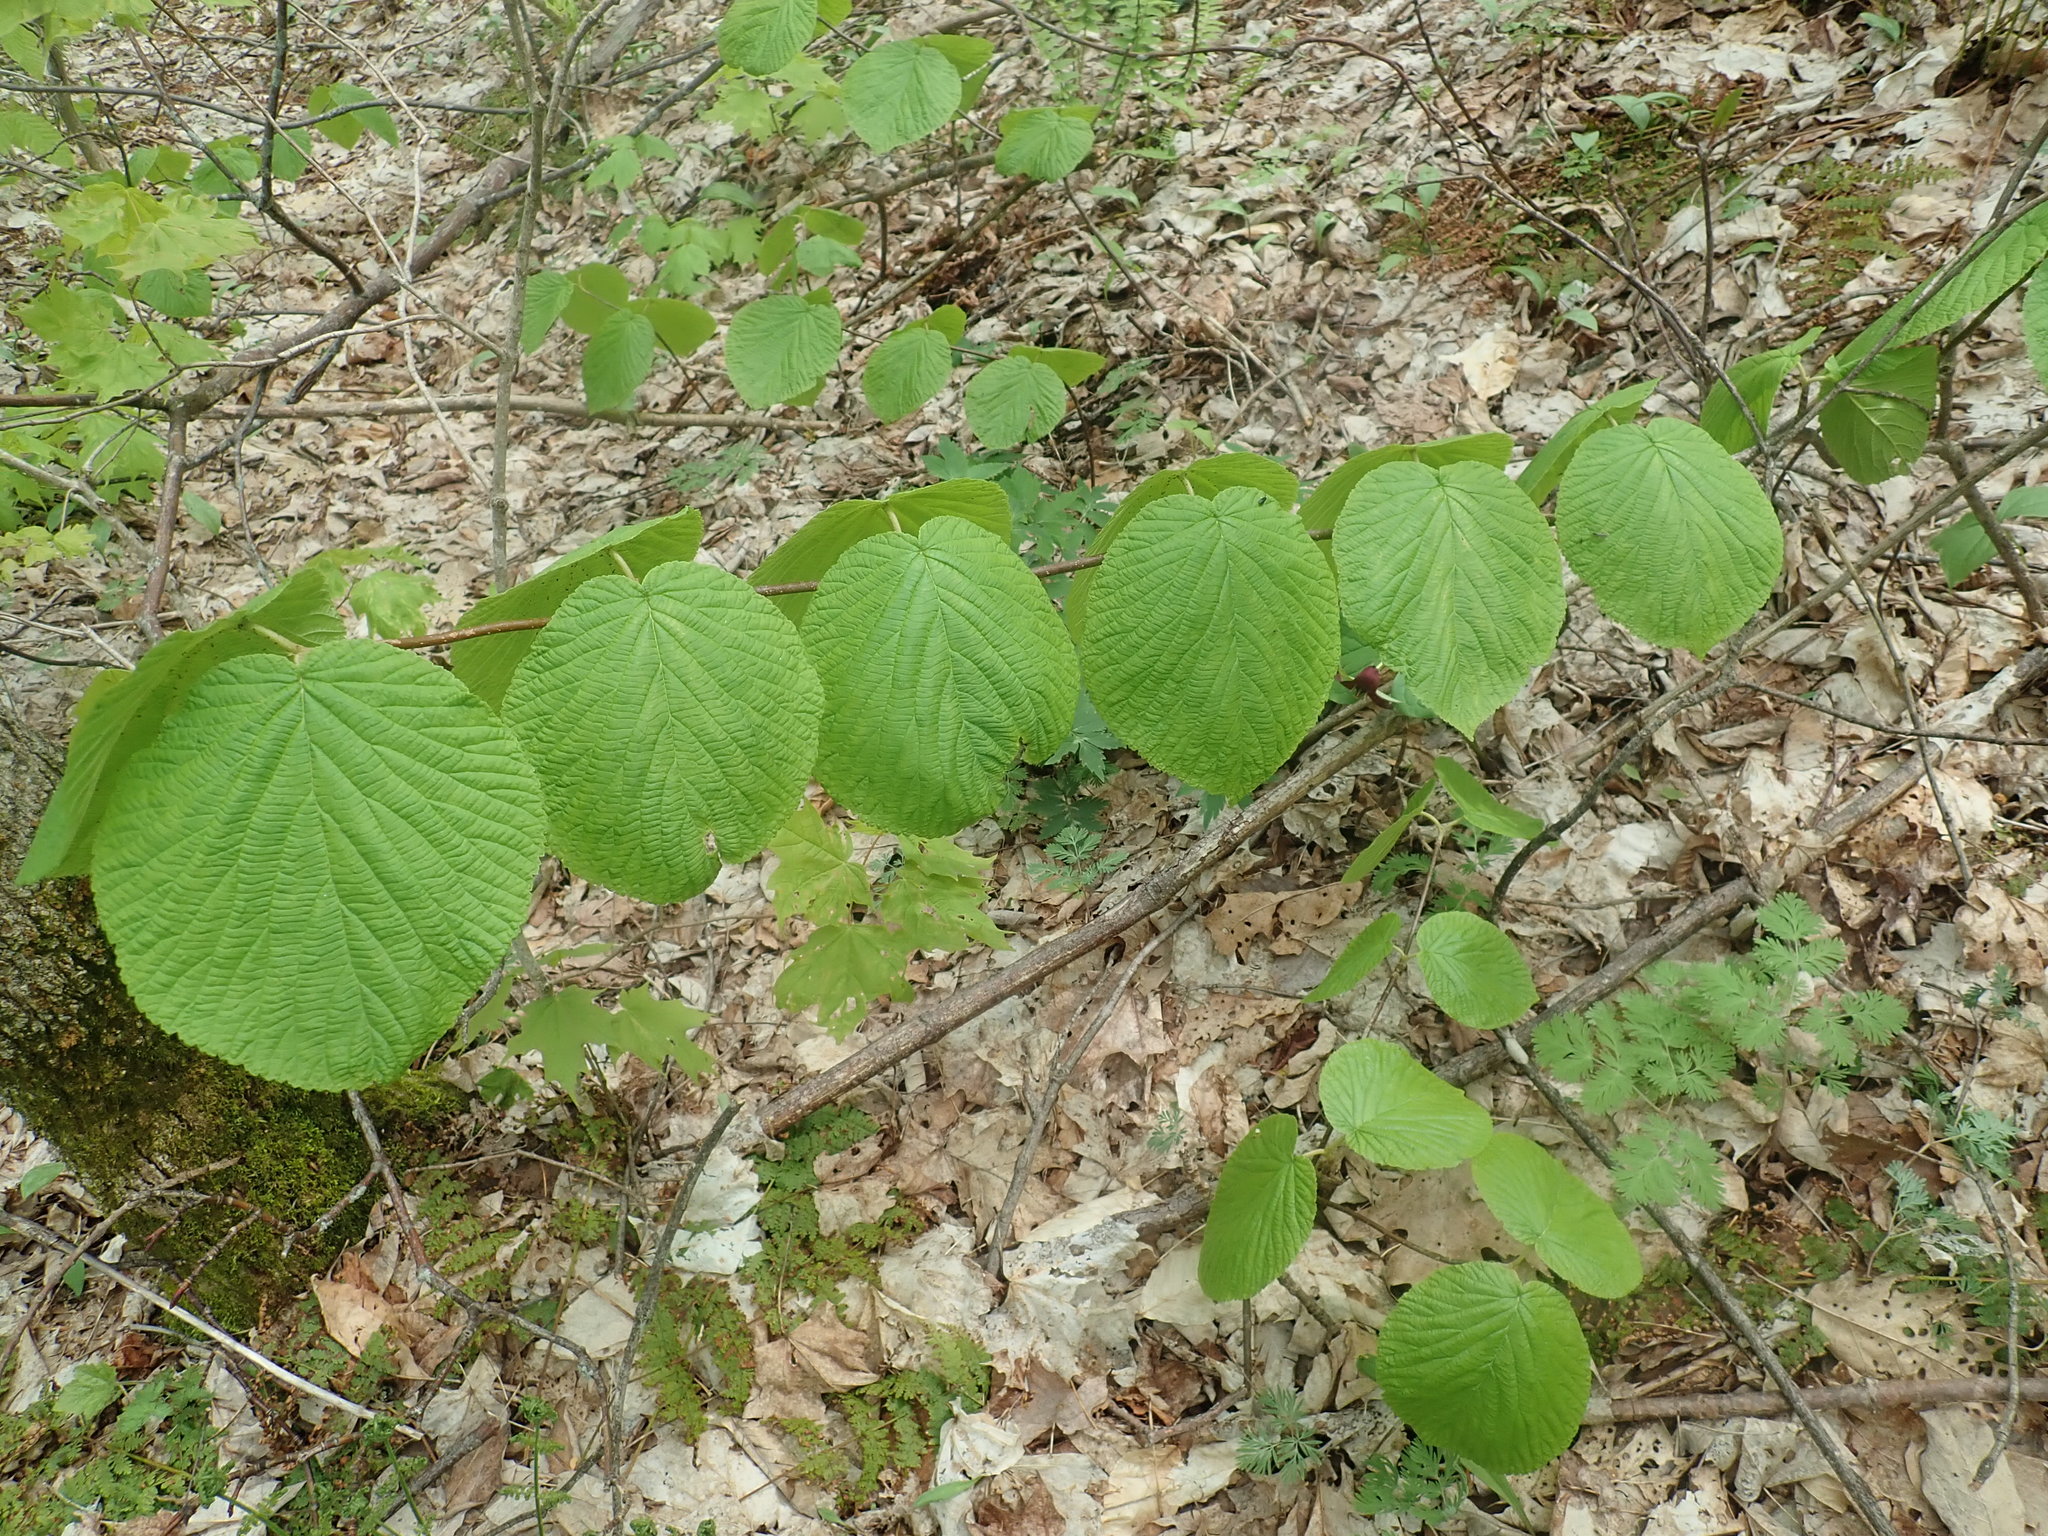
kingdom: Plantae
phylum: Tracheophyta
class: Magnoliopsida
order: Dipsacales
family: Viburnaceae
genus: Viburnum
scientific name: Viburnum lantanoides
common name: Hobblebush
